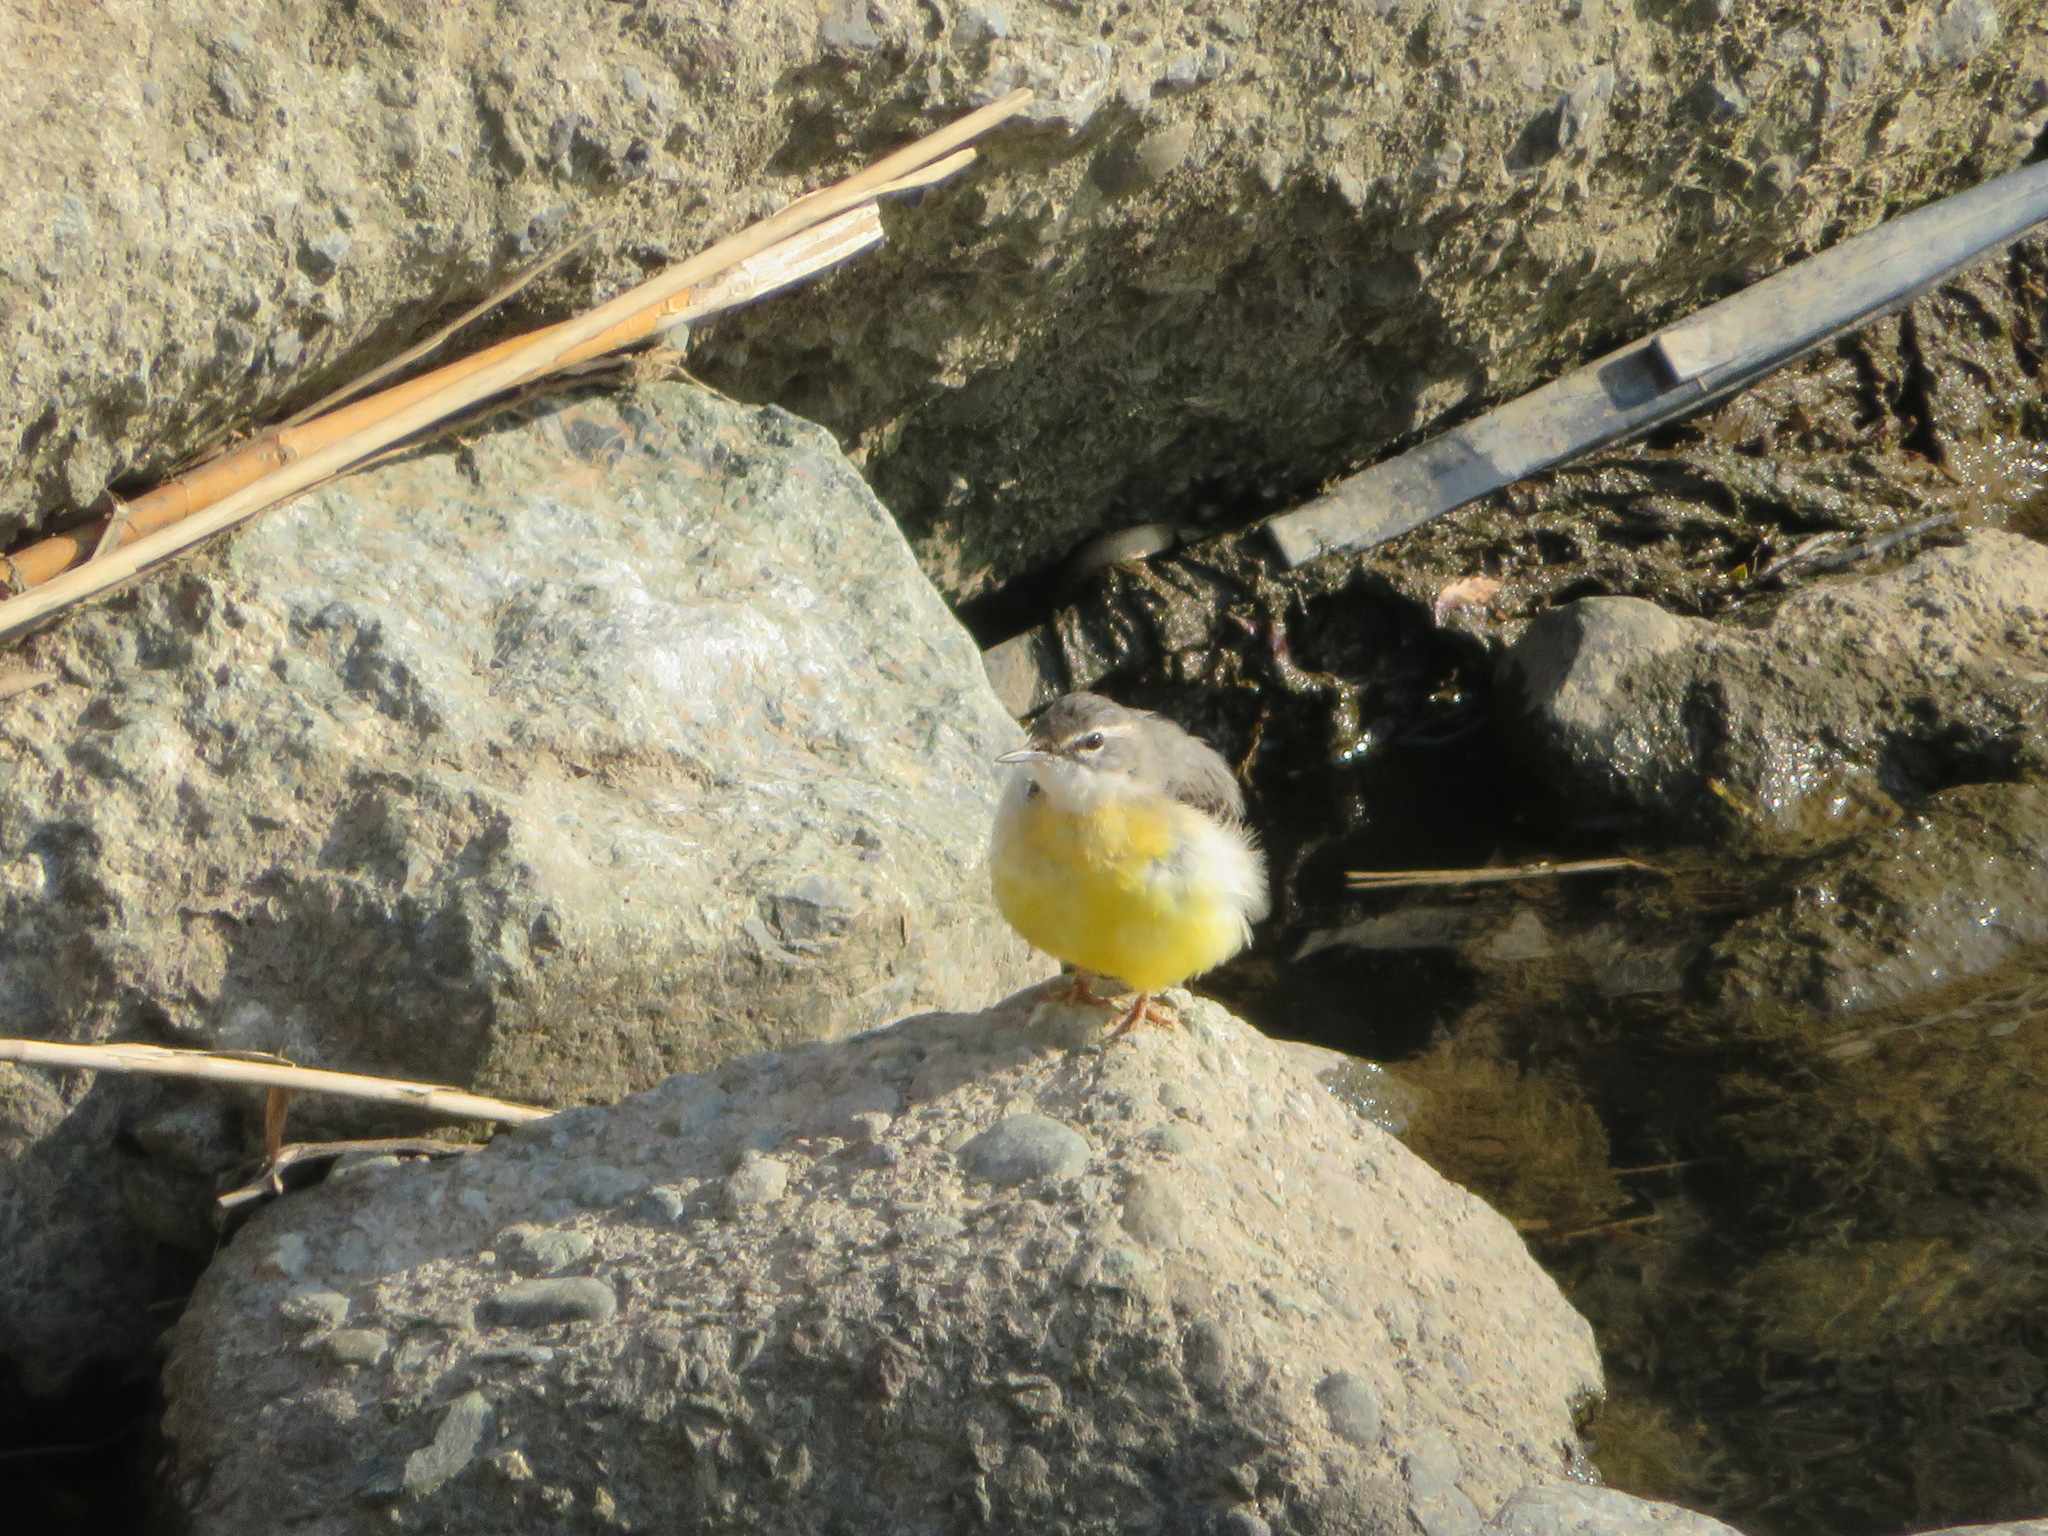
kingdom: Animalia
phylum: Chordata
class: Aves
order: Passeriformes
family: Motacillidae
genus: Motacilla
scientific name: Motacilla cinerea
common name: Grey wagtail
